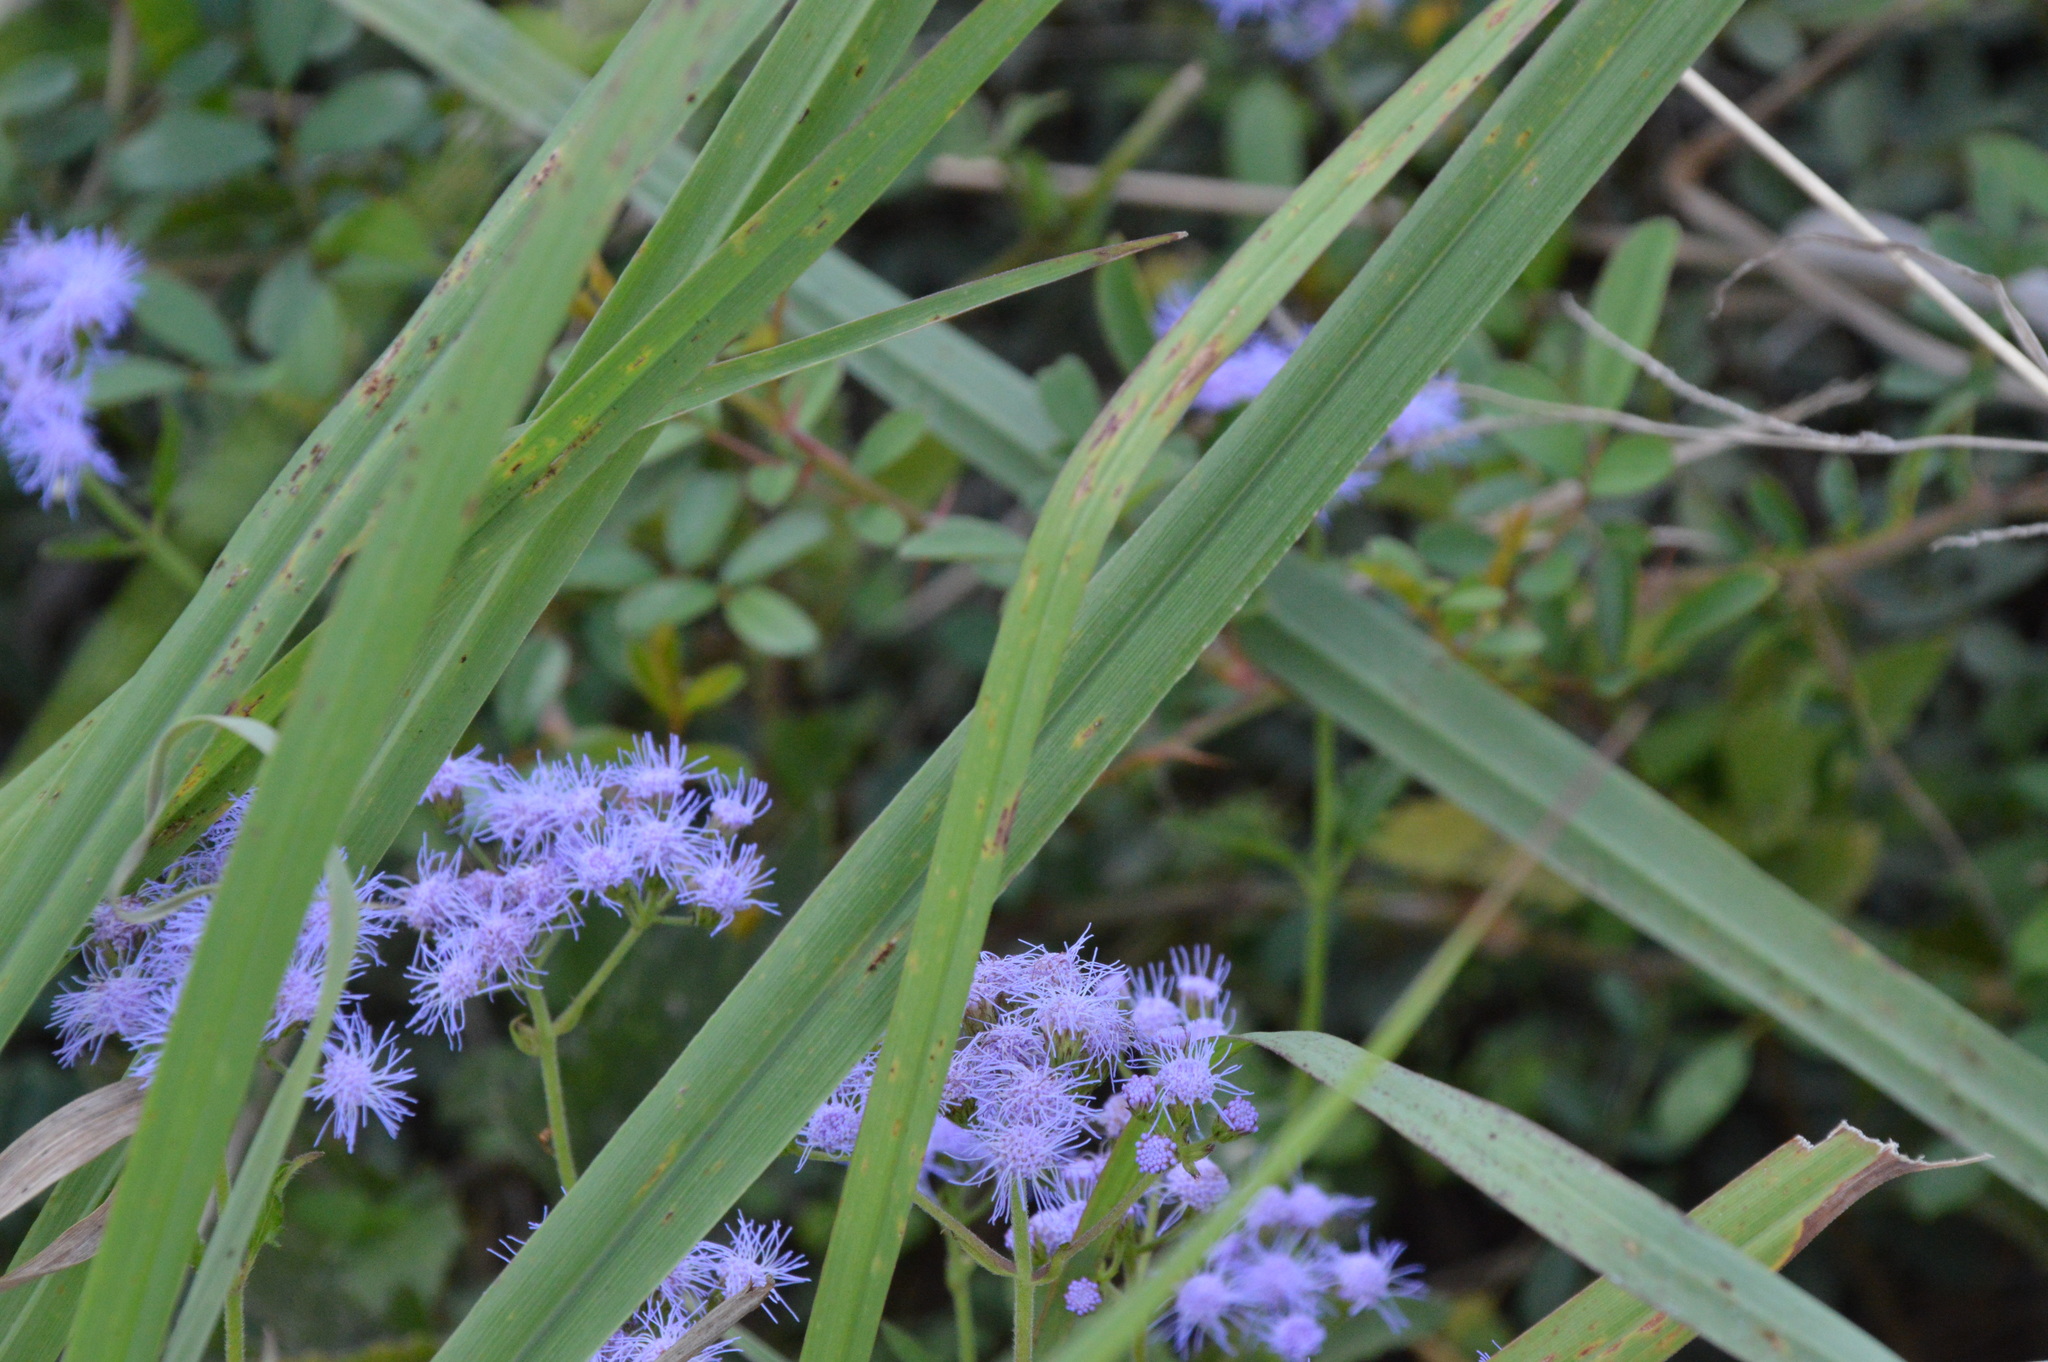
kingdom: Plantae
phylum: Tracheophyta
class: Magnoliopsida
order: Asterales
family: Asteraceae
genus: Conoclinium
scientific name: Conoclinium coelestinum
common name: Blue mistflower
